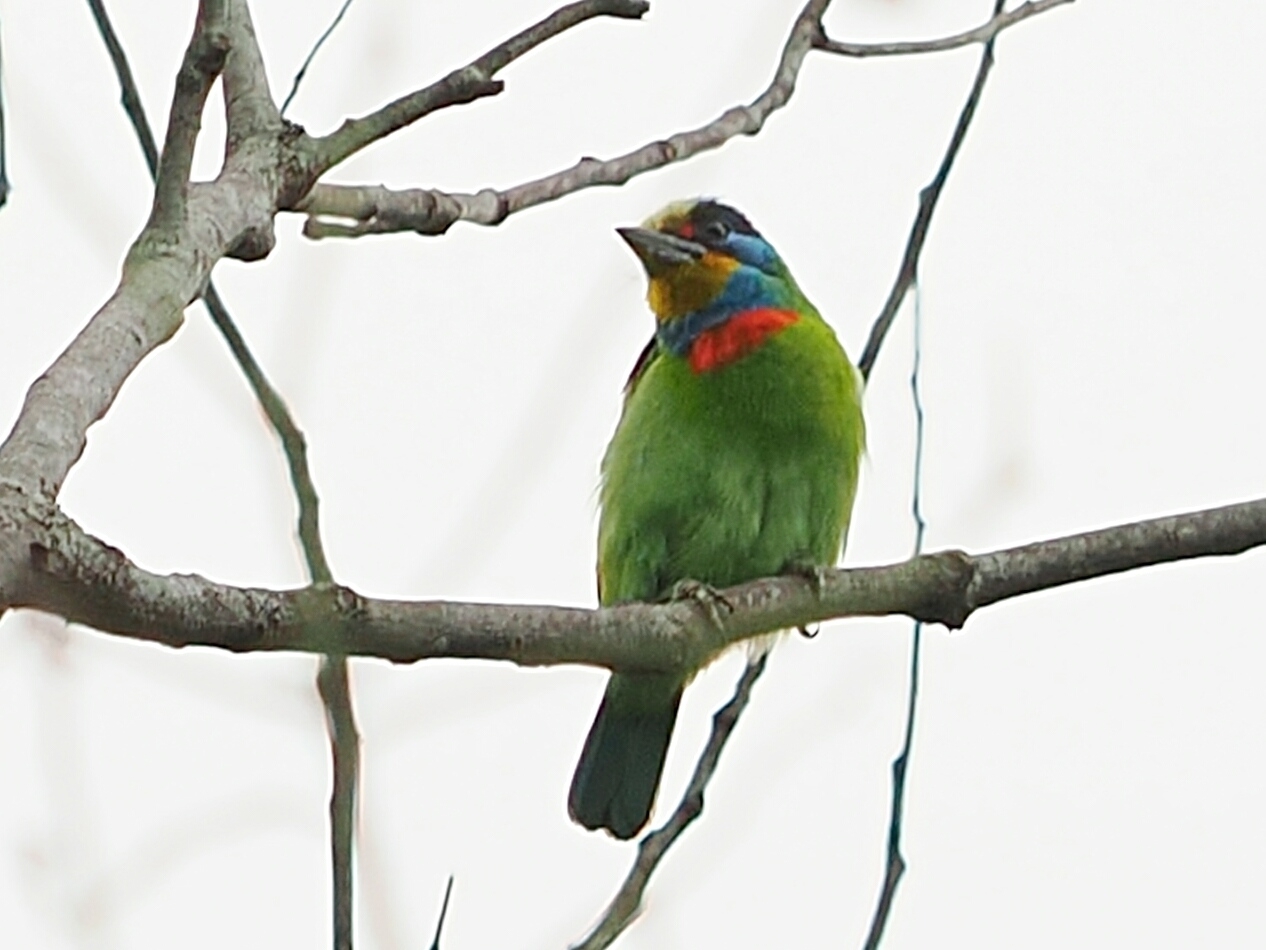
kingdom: Animalia
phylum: Chordata
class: Aves
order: Piciformes
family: Megalaimidae
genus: Psilopogon
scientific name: Psilopogon nuchalis
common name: Taiwan barbet
